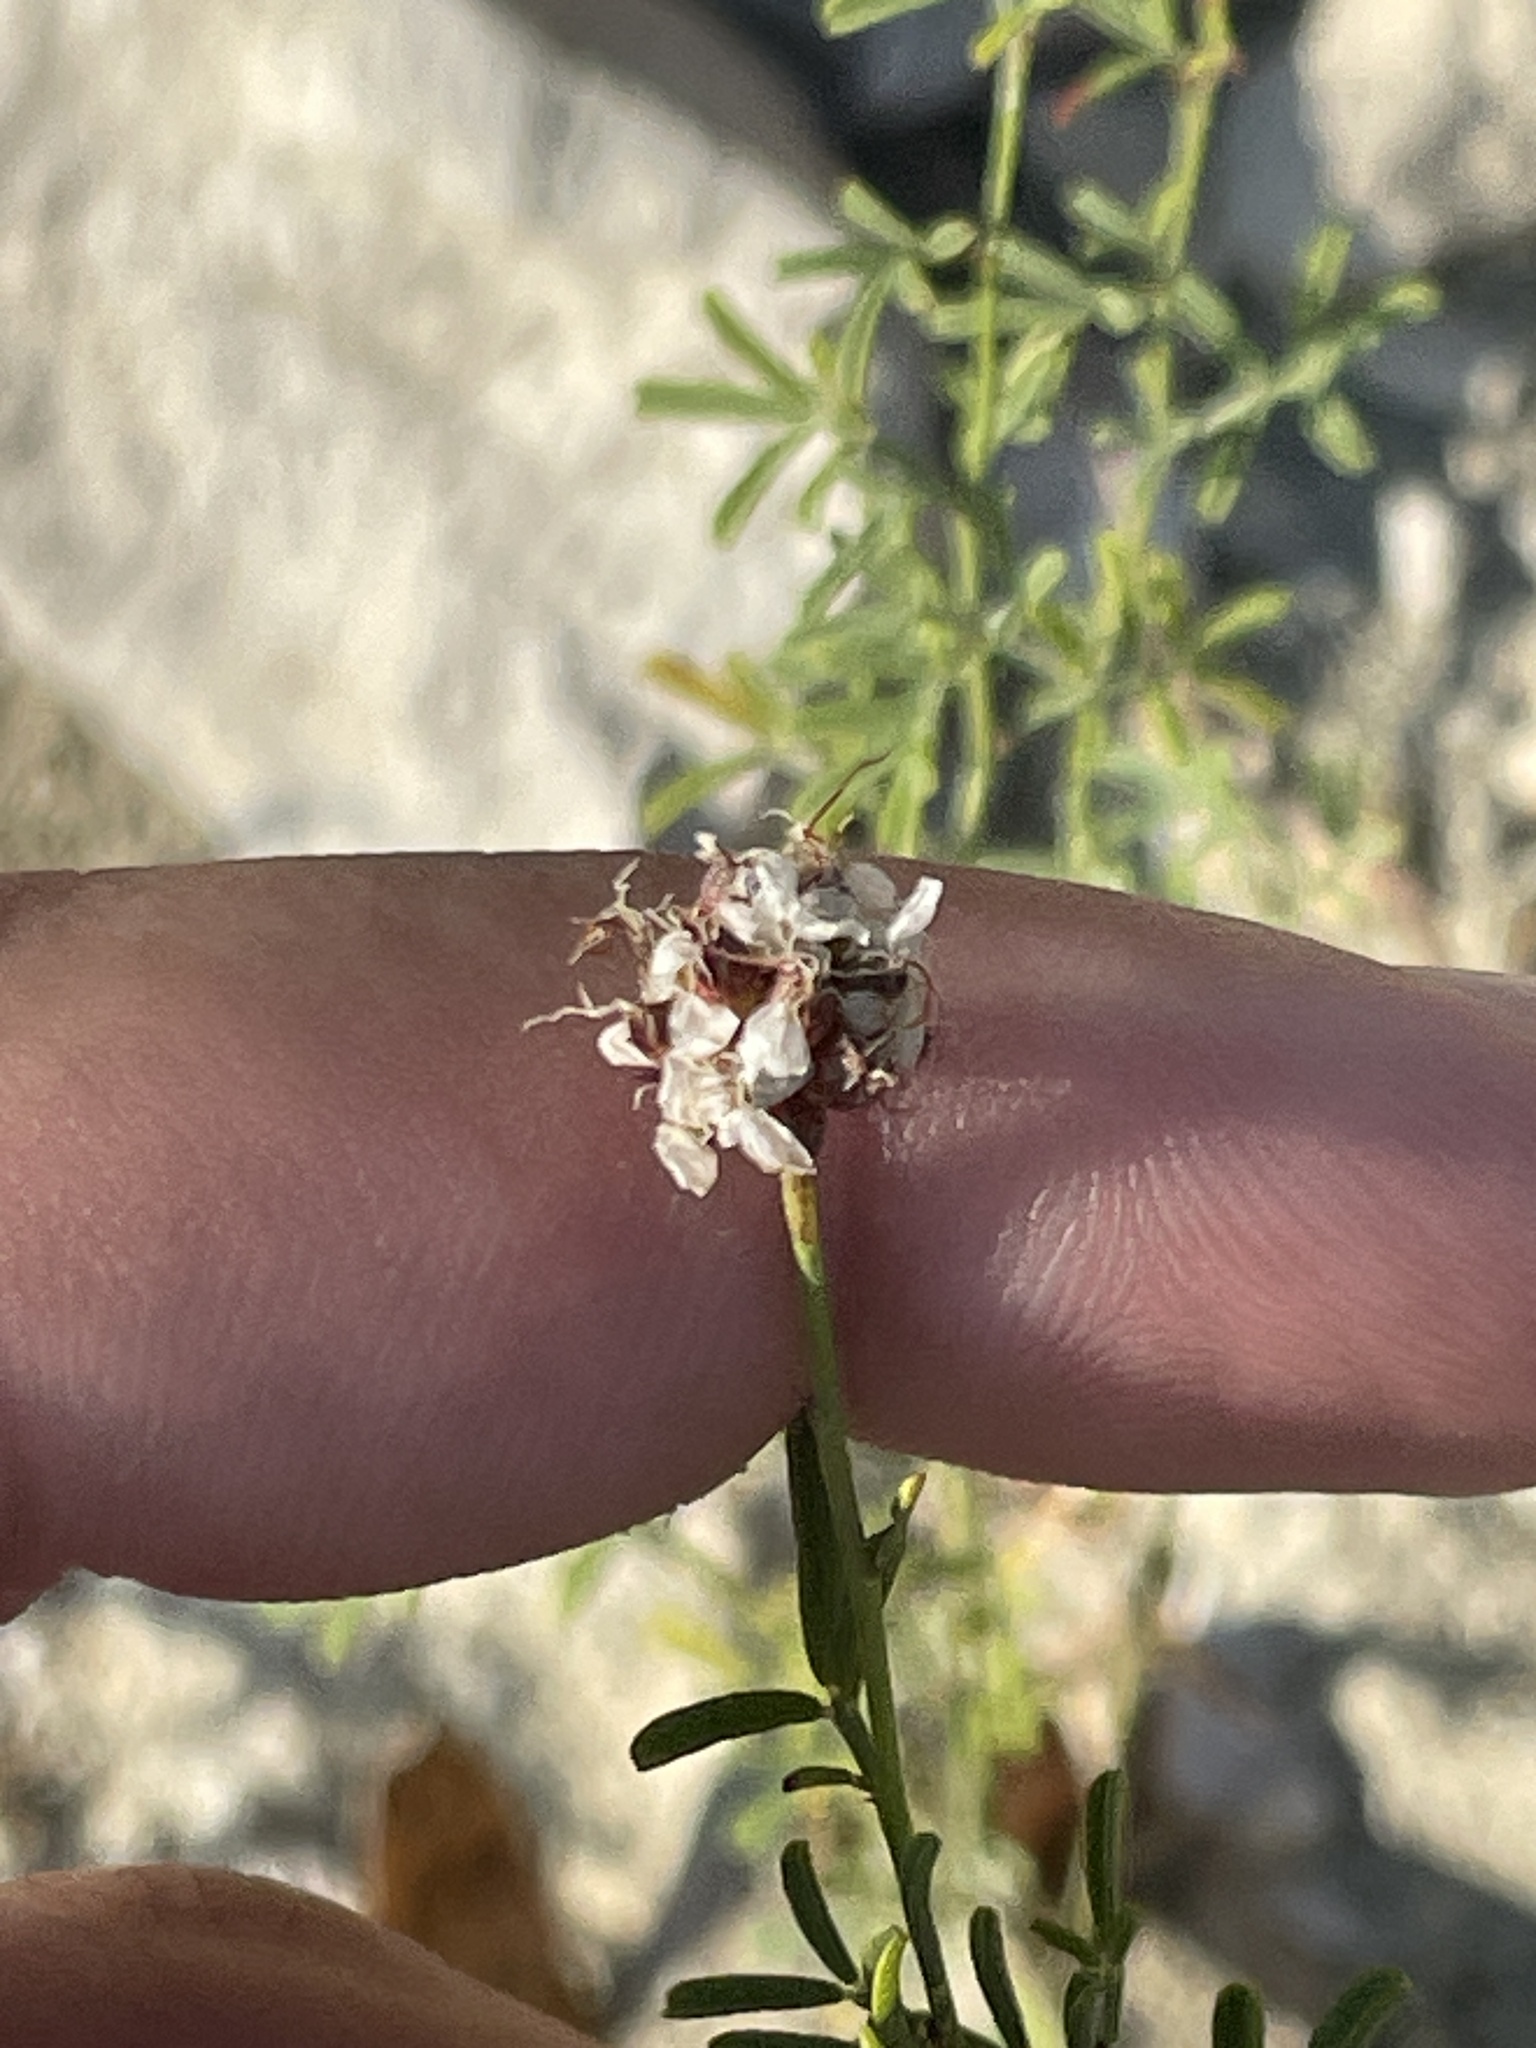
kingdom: Plantae
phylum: Tracheophyta
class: Magnoliopsida
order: Fabales
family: Fabaceae
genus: Dalea
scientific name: Dalea multiflora
